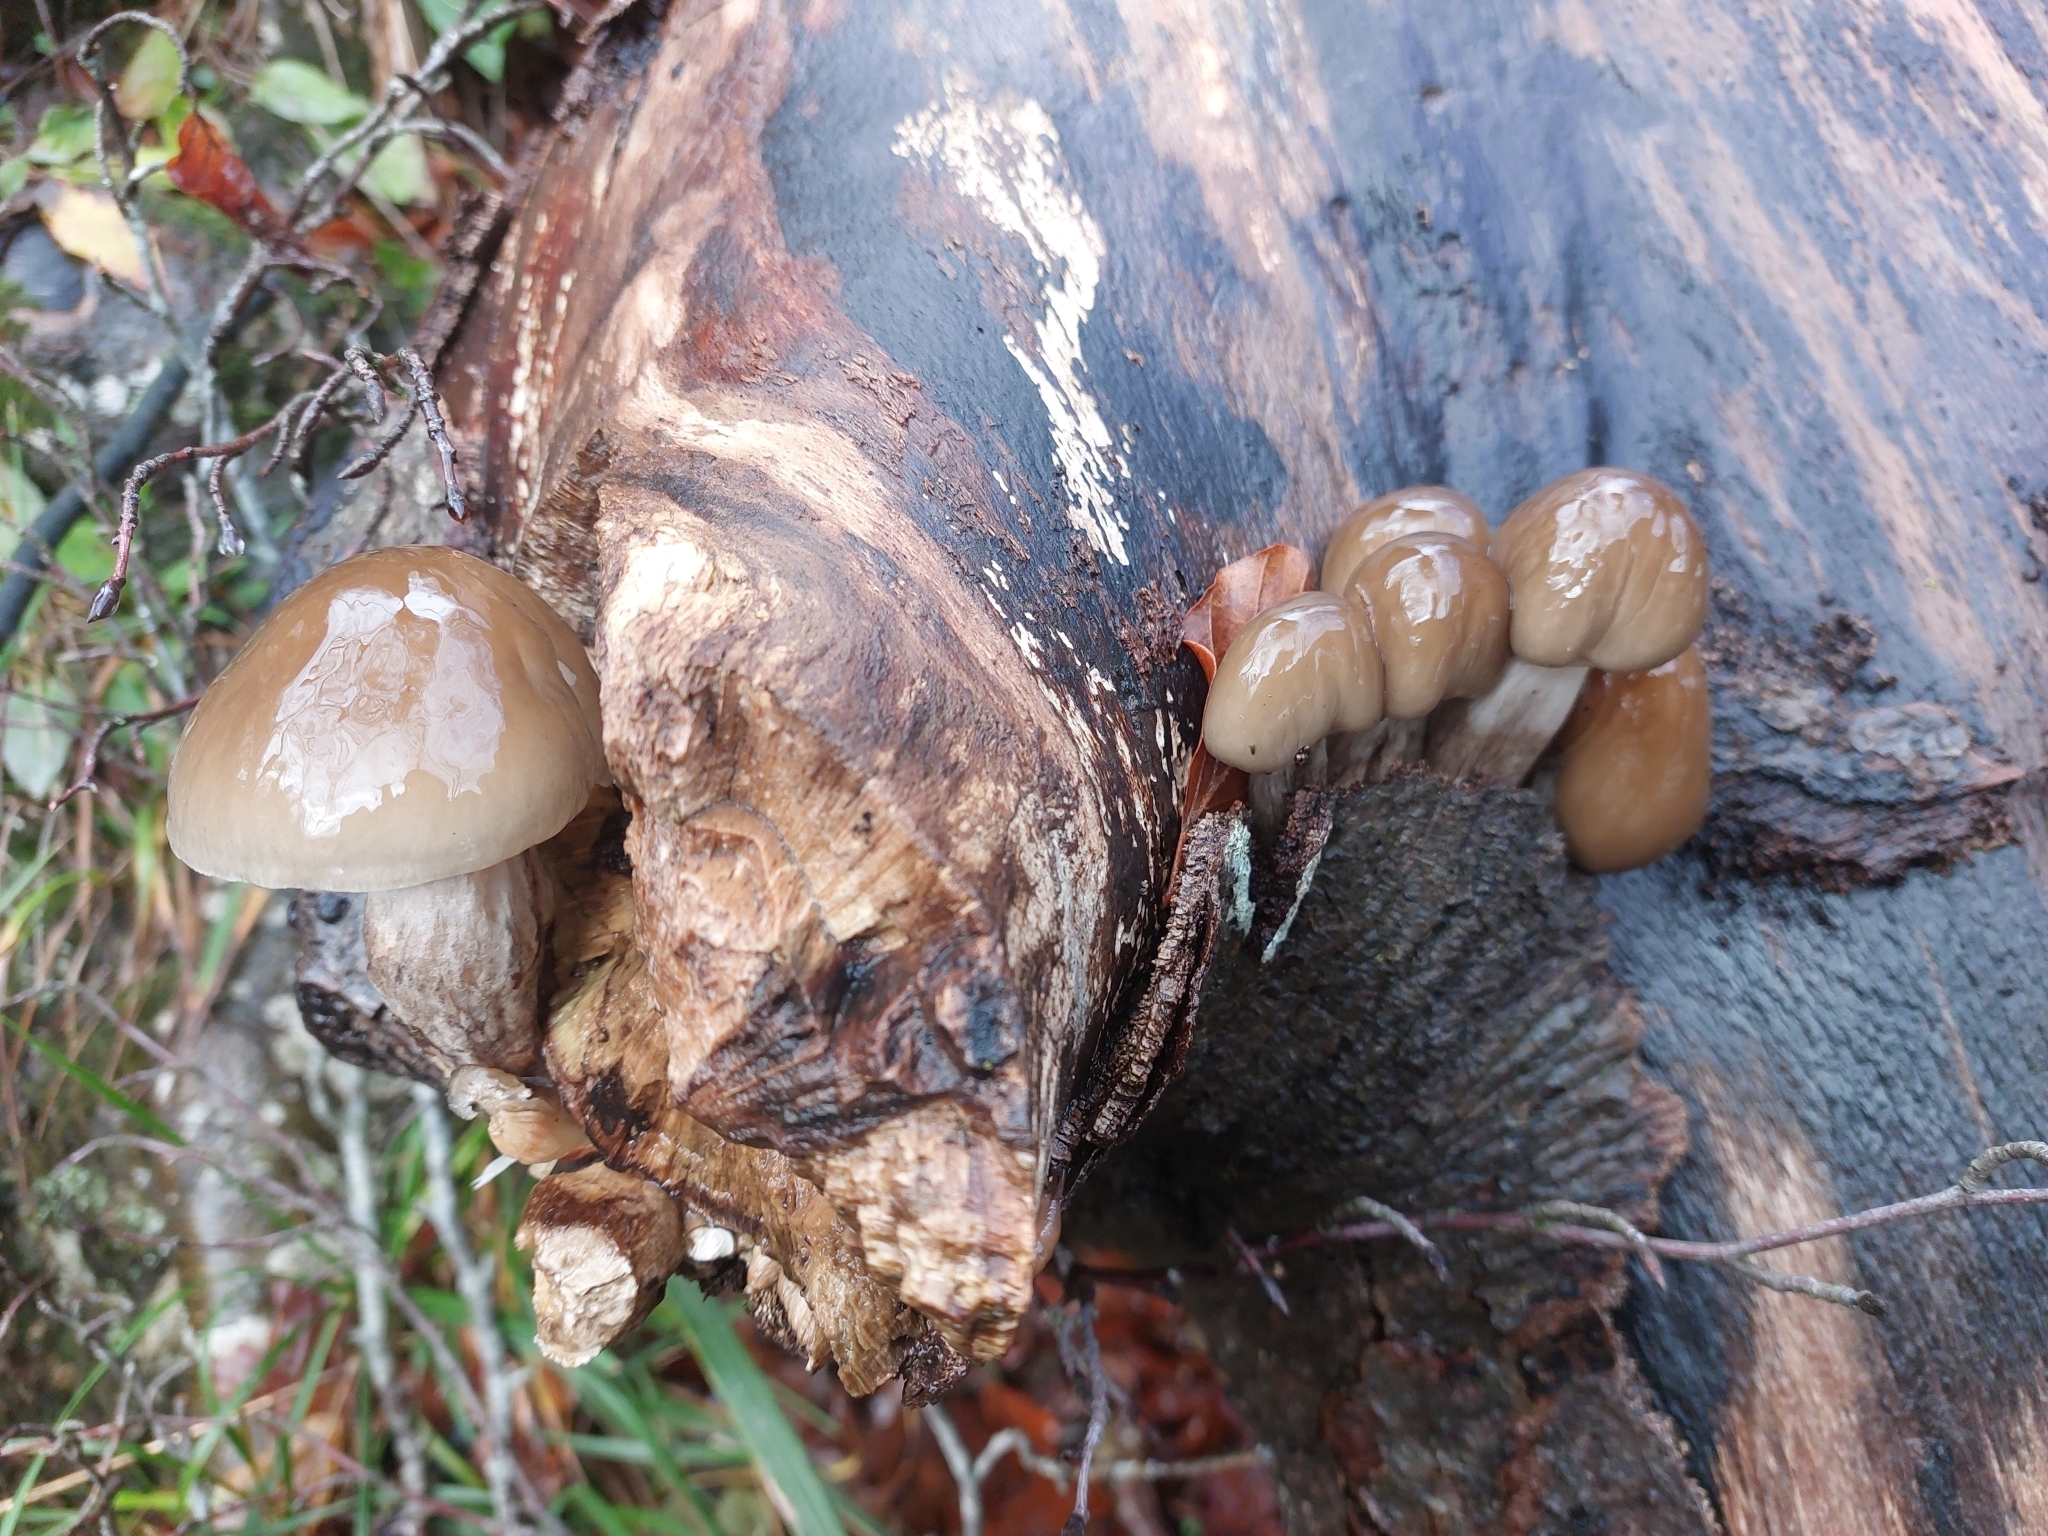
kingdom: Fungi
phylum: Basidiomycota
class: Agaricomycetes
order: Agaricales
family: Physalacriaceae
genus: Mucidula
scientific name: Mucidula mucida
